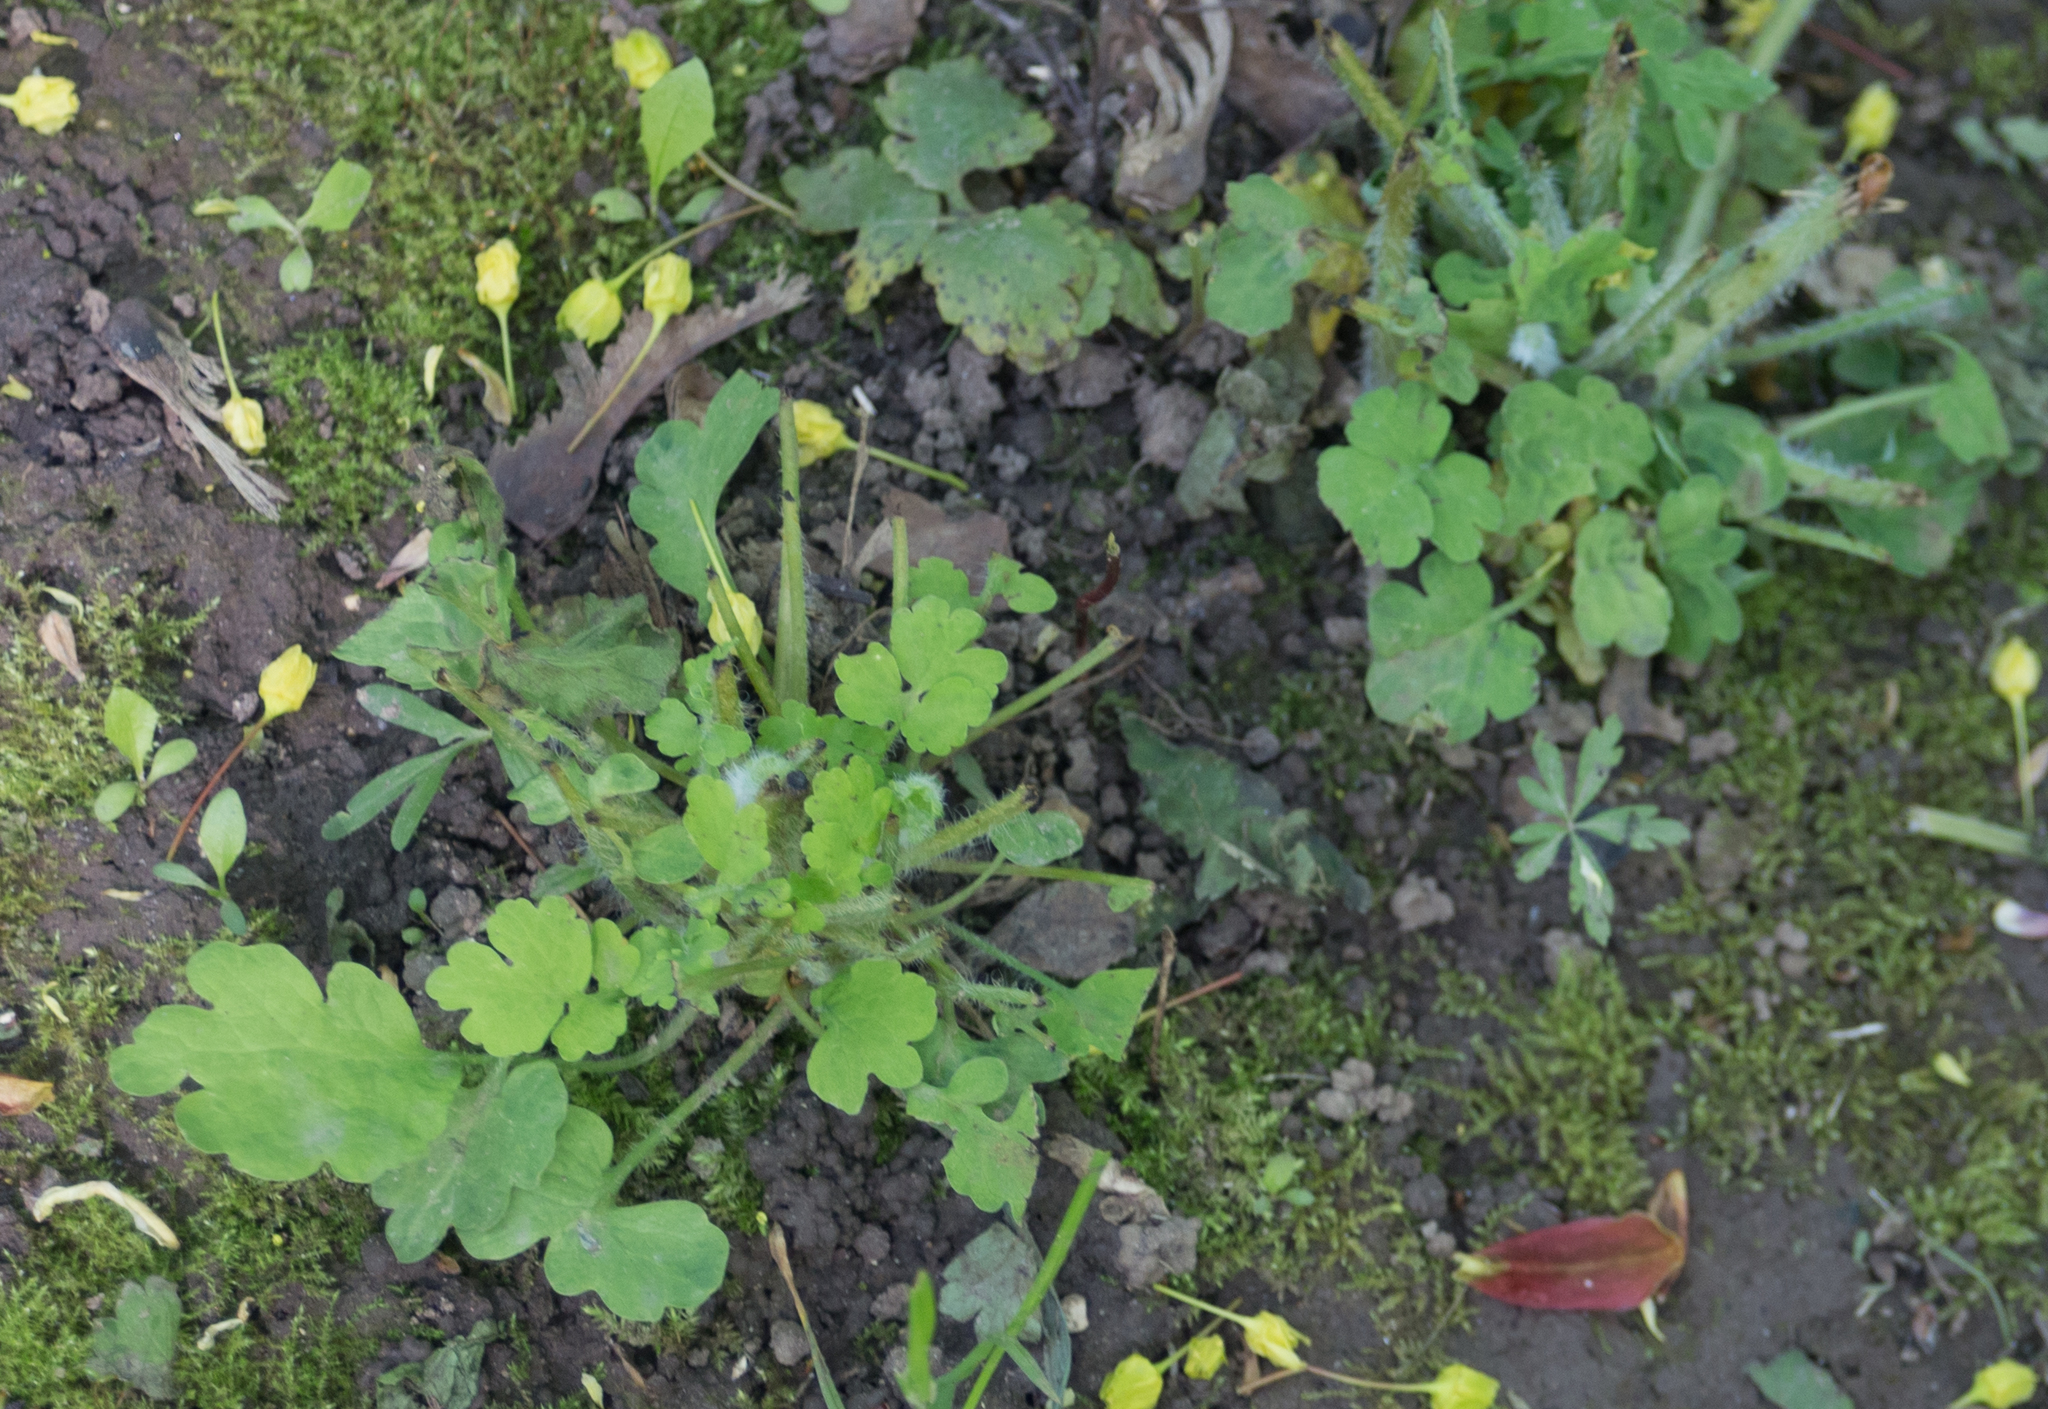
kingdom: Plantae
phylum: Tracheophyta
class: Magnoliopsida
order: Ranunculales
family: Papaveraceae
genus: Chelidonium
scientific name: Chelidonium majus
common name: Greater celandine
